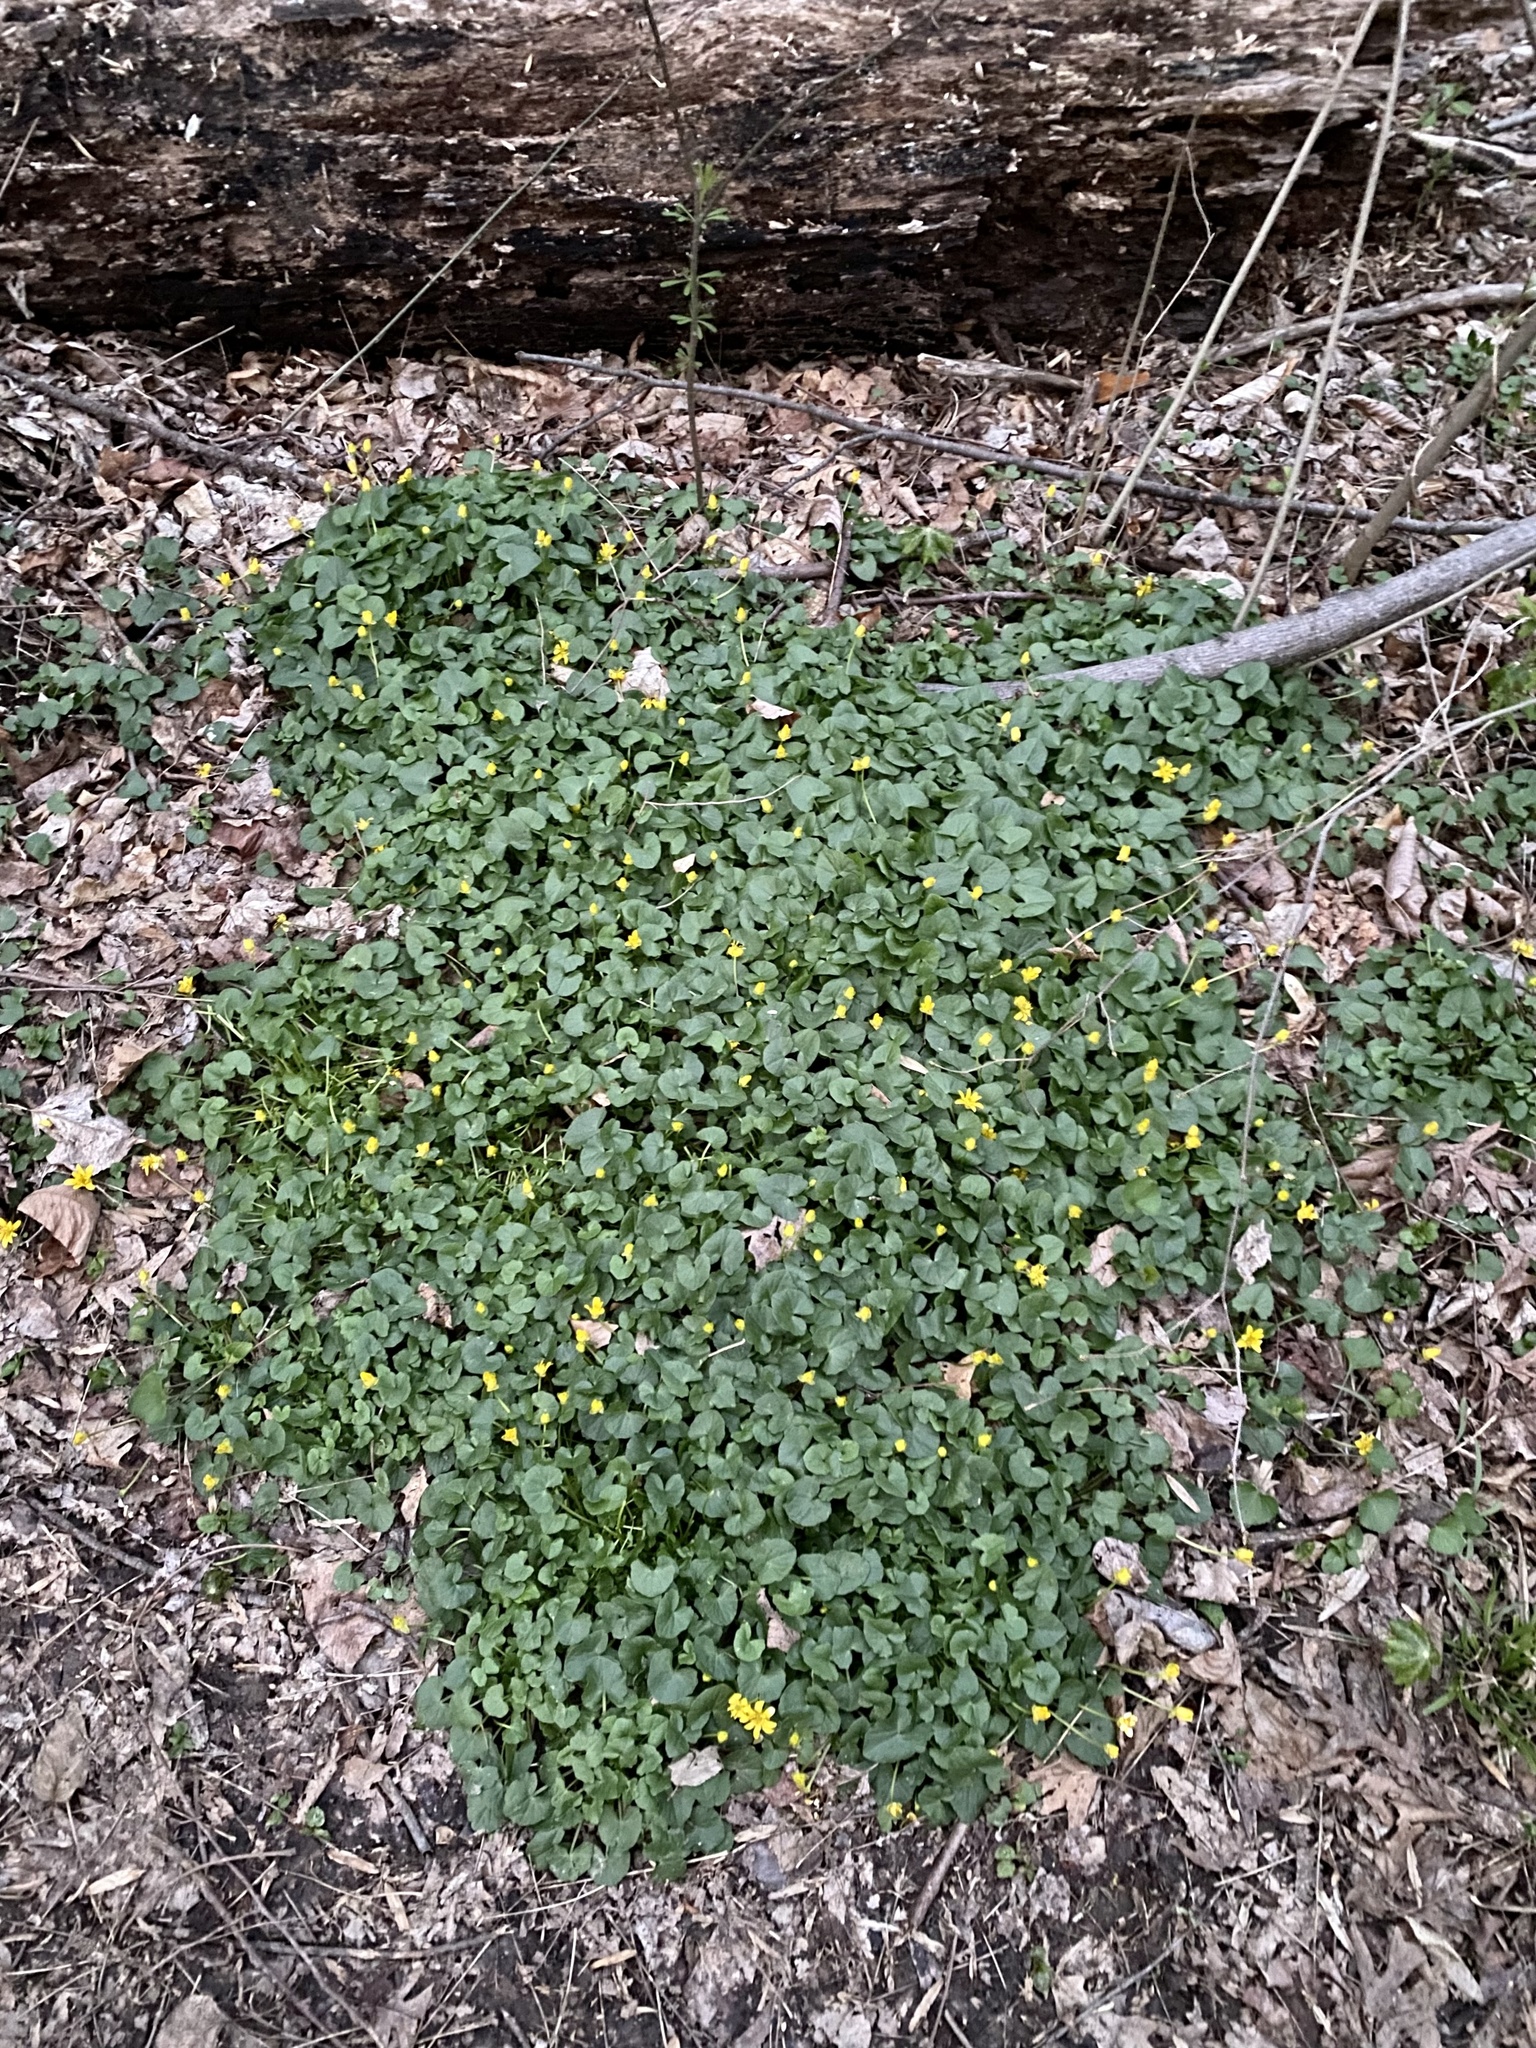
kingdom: Plantae
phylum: Tracheophyta
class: Magnoliopsida
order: Ranunculales
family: Ranunculaceae
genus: Ficaria
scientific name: Ficaria verna
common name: Lesser celandine
